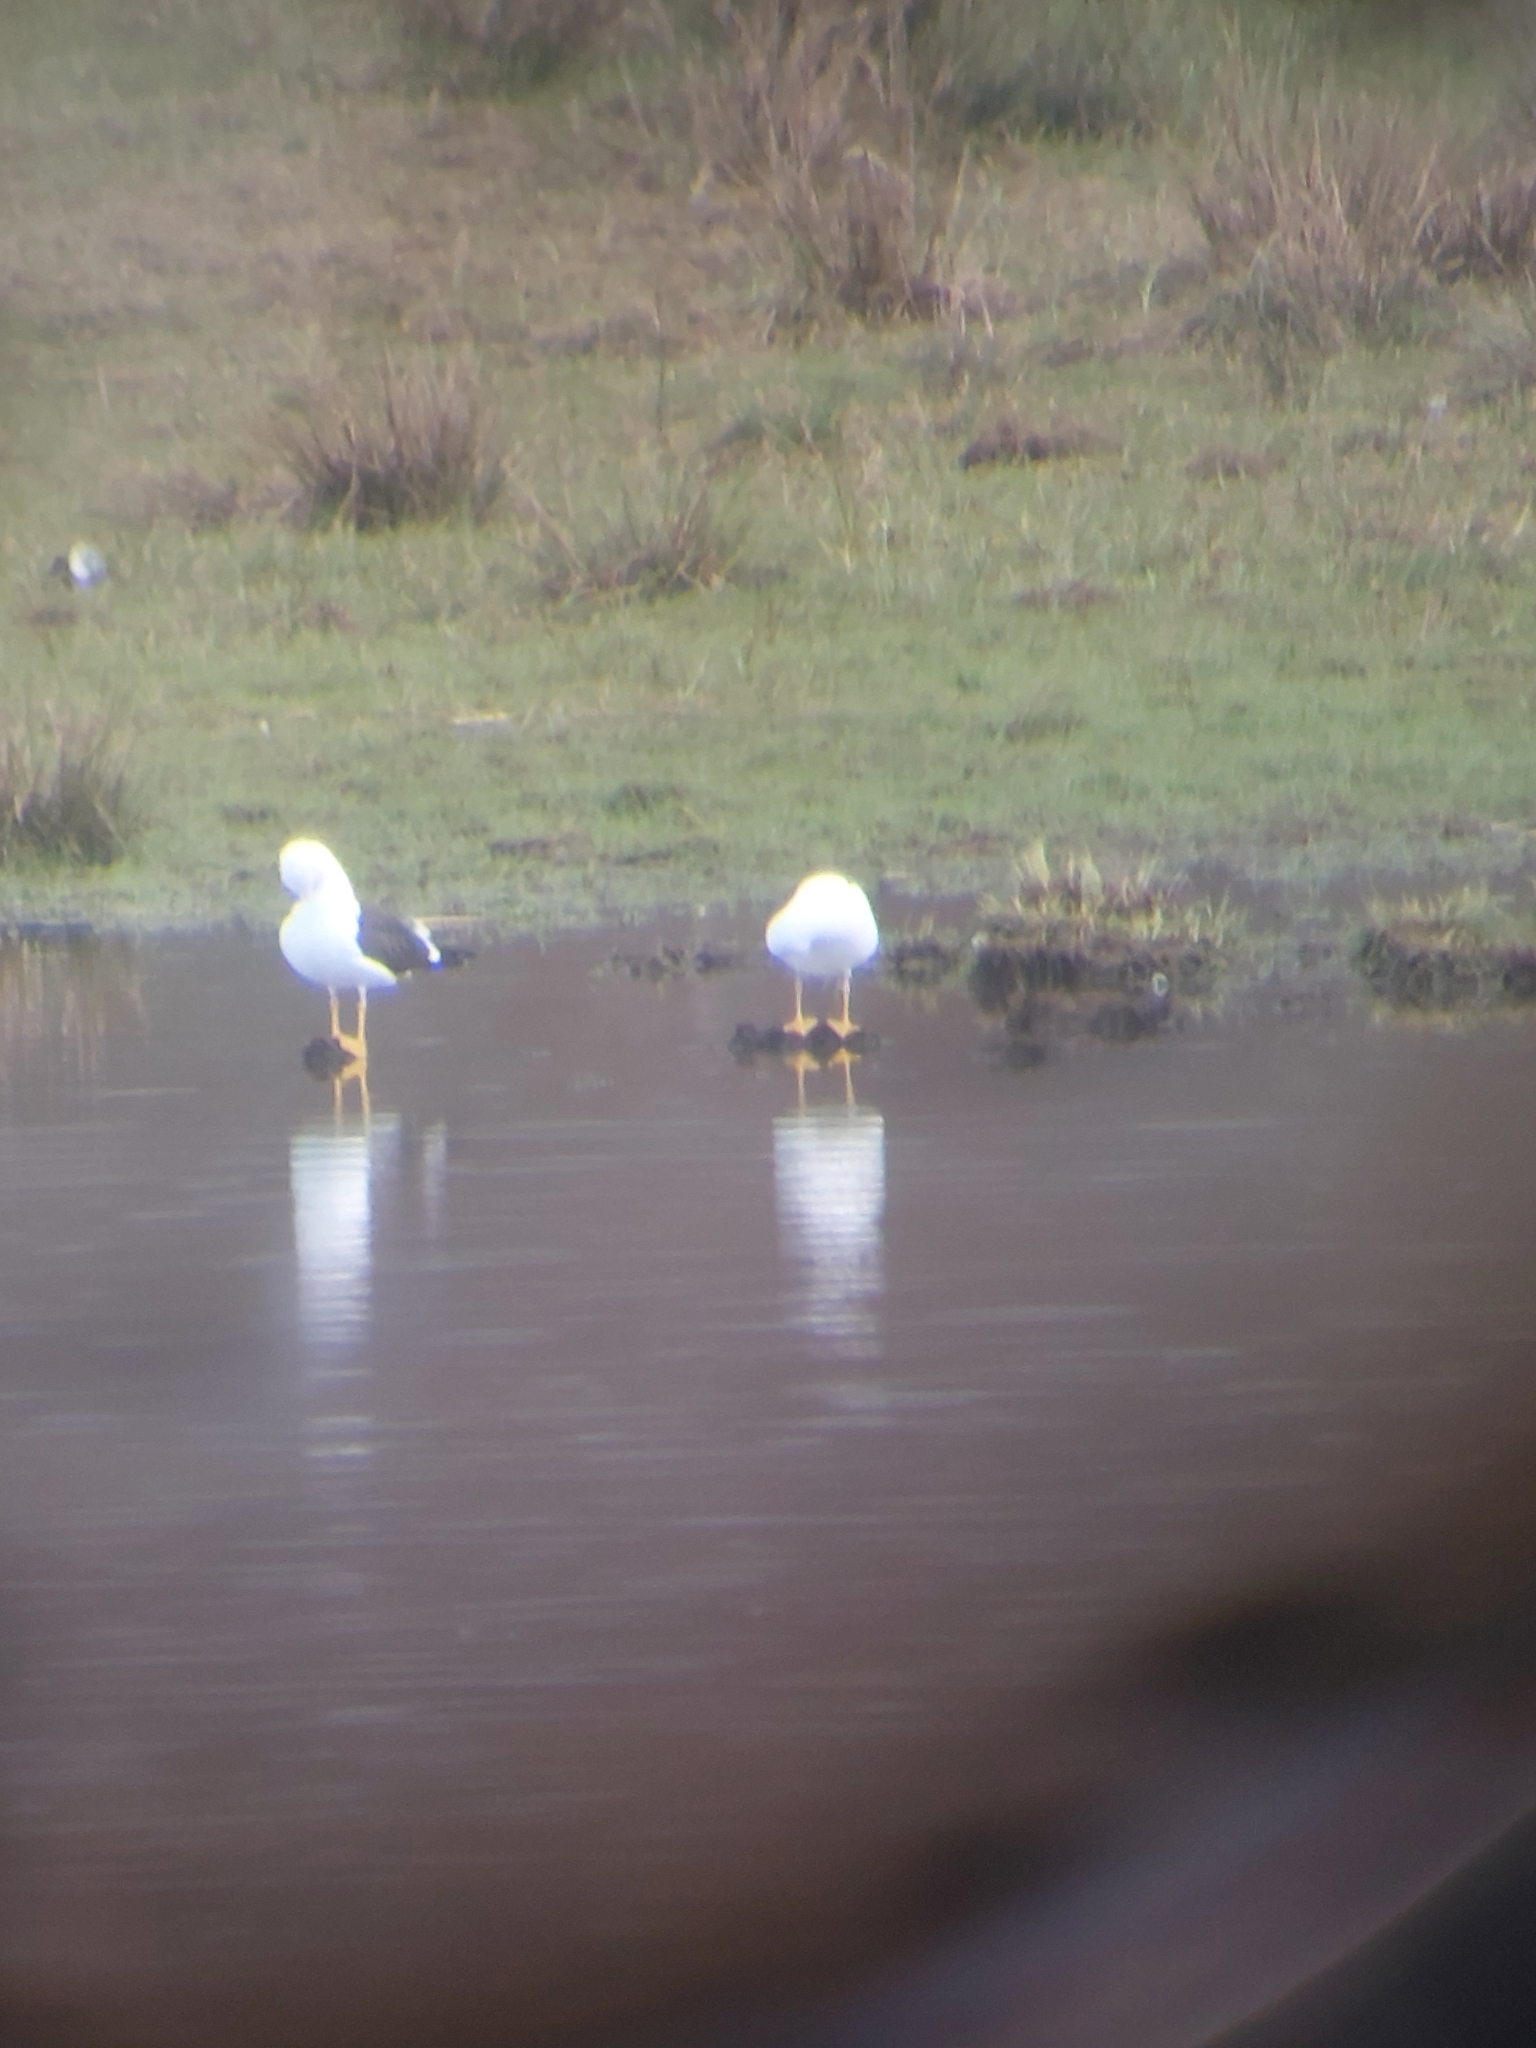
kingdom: Animalia
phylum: Chordata
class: Aves
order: Charadriiformes
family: Laridae
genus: Larus
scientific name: Larus fuscus
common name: Lesser black-backed gull
